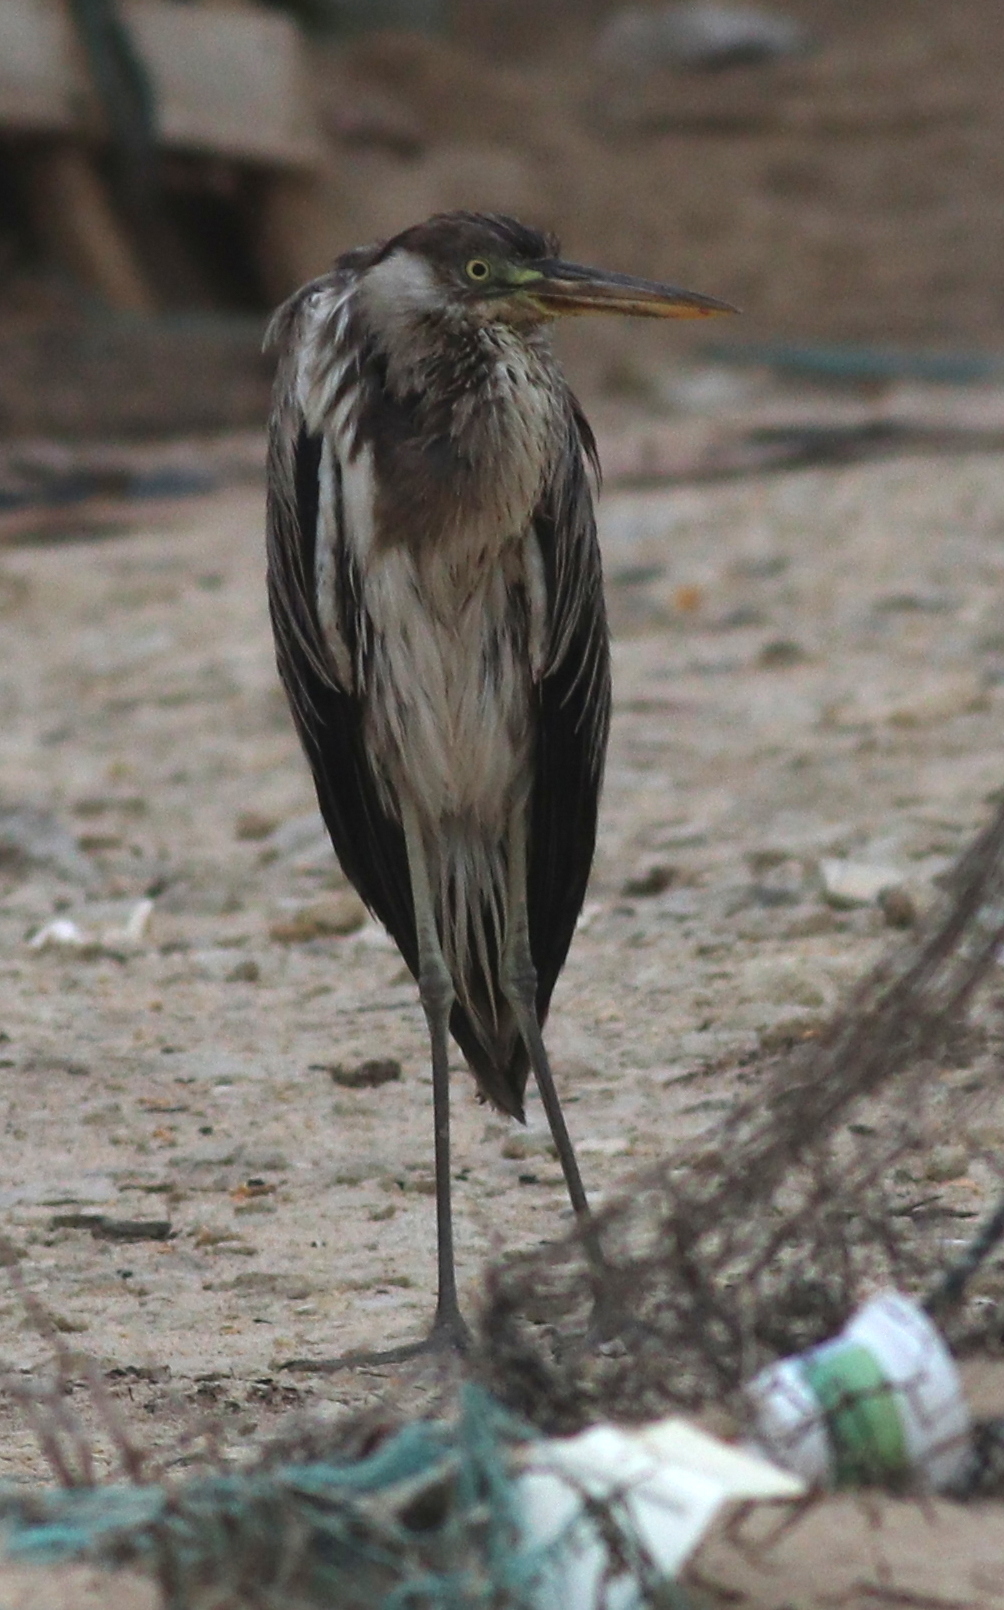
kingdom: Animalia
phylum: Chordata
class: Aves
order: Pelecaniformes
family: Ardeidae
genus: Ardea
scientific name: Ardea cinerea
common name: Grey heron
